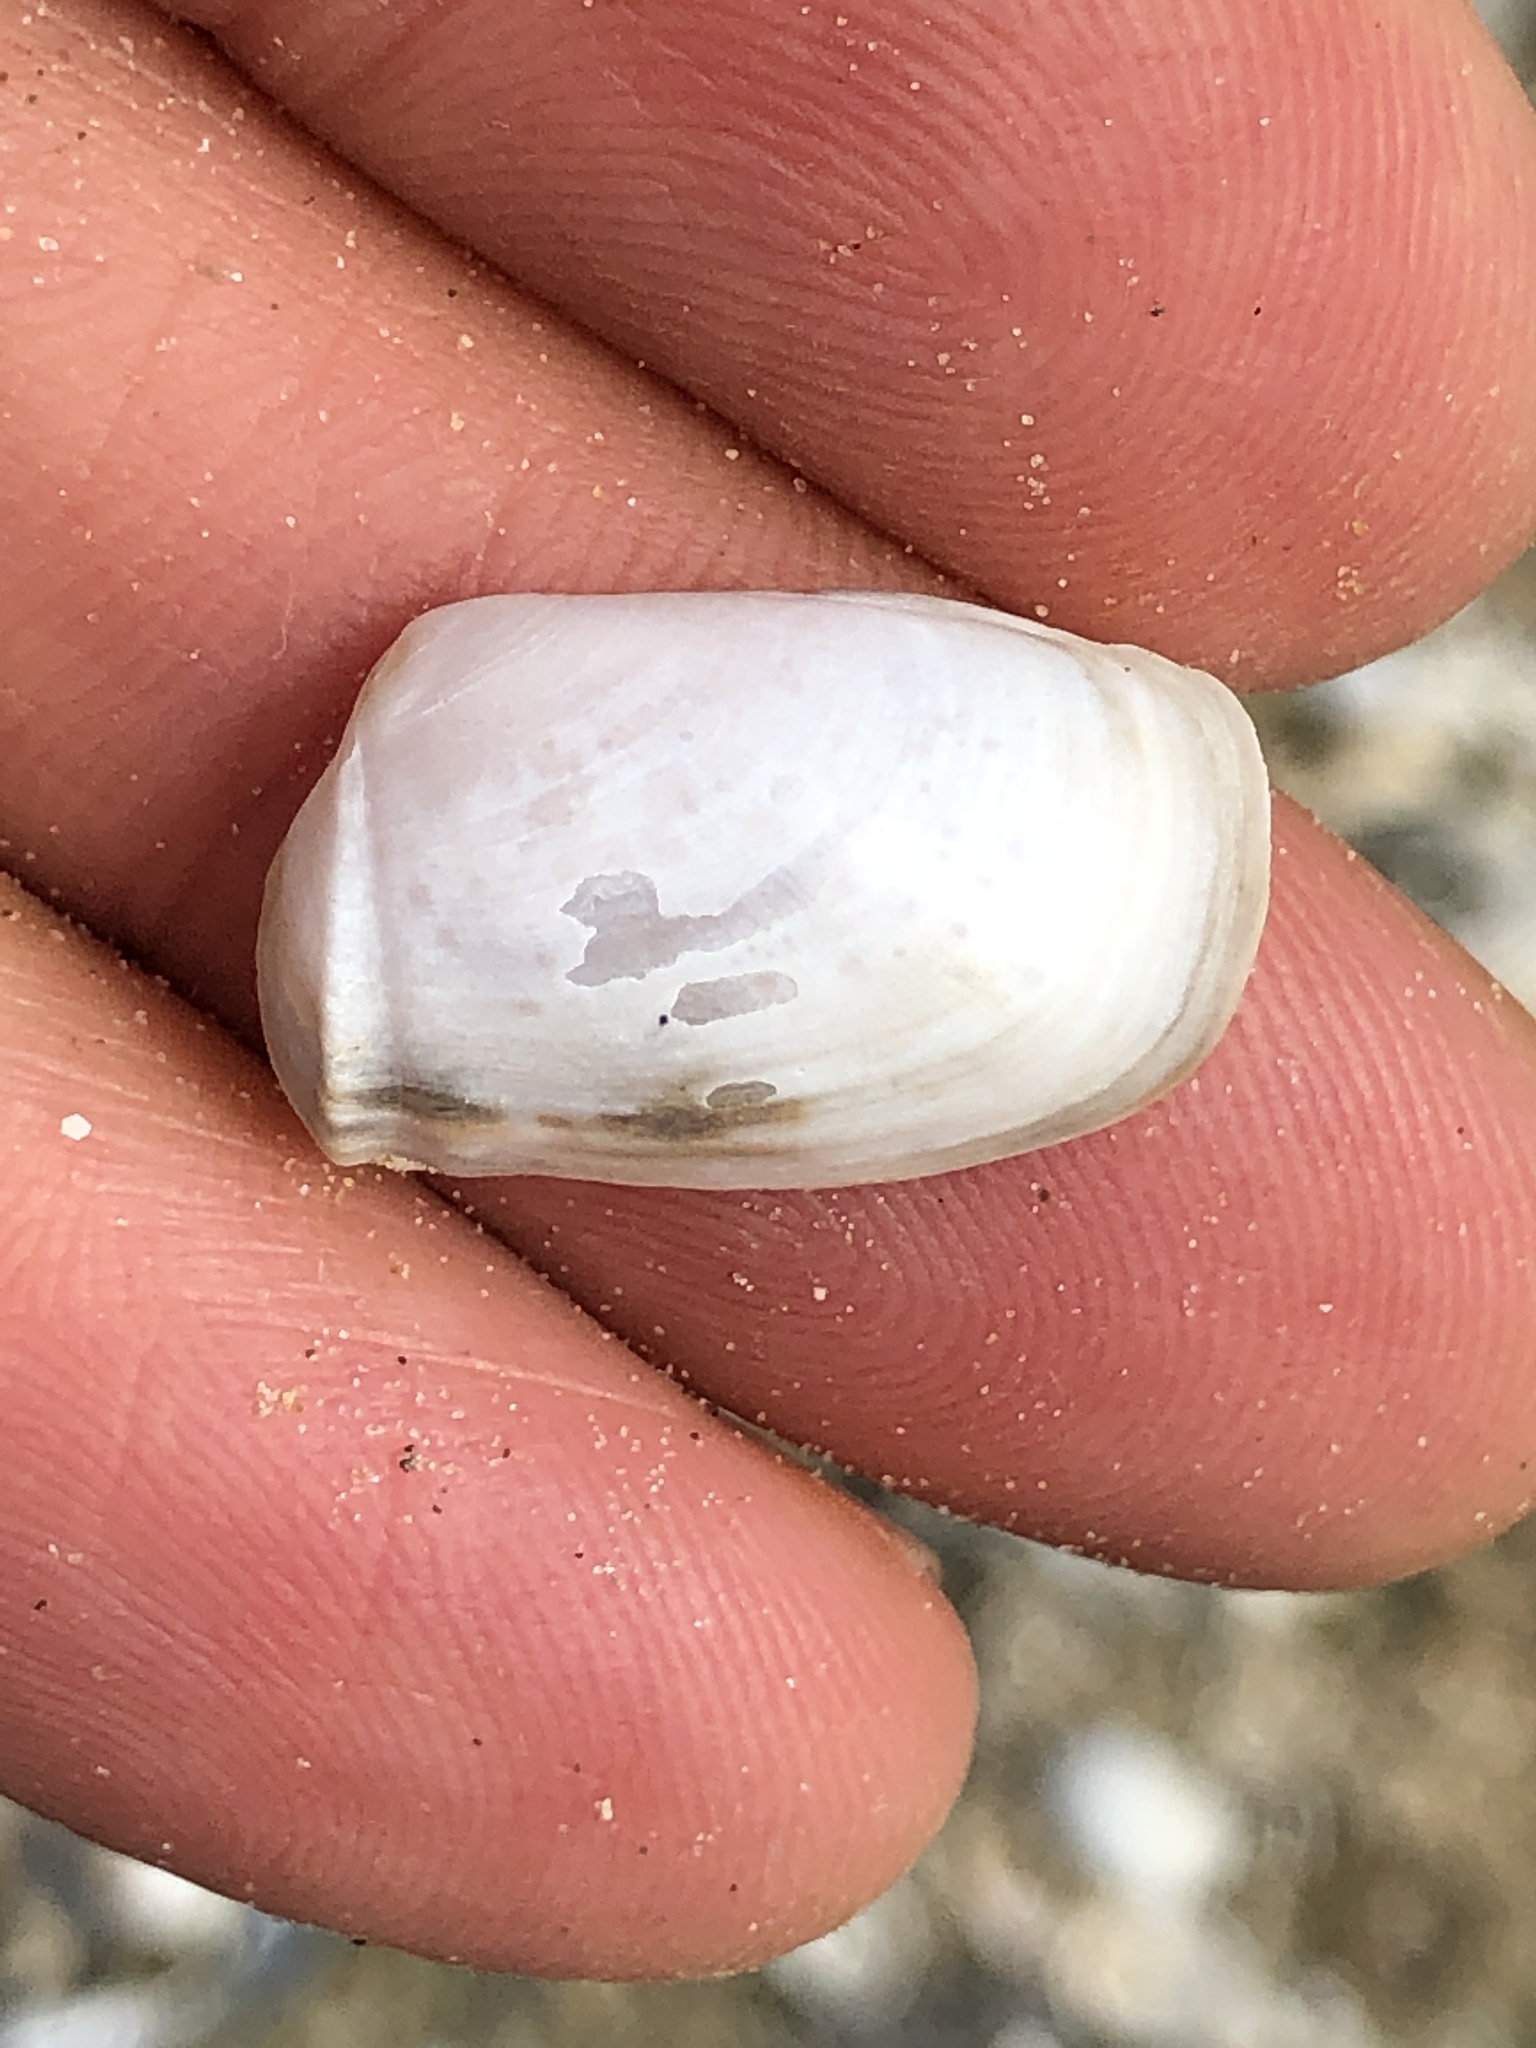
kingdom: Animalia
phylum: Mollusca
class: Bivalvia
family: Periplomatidae
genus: Periploma
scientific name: Periploma inequale
